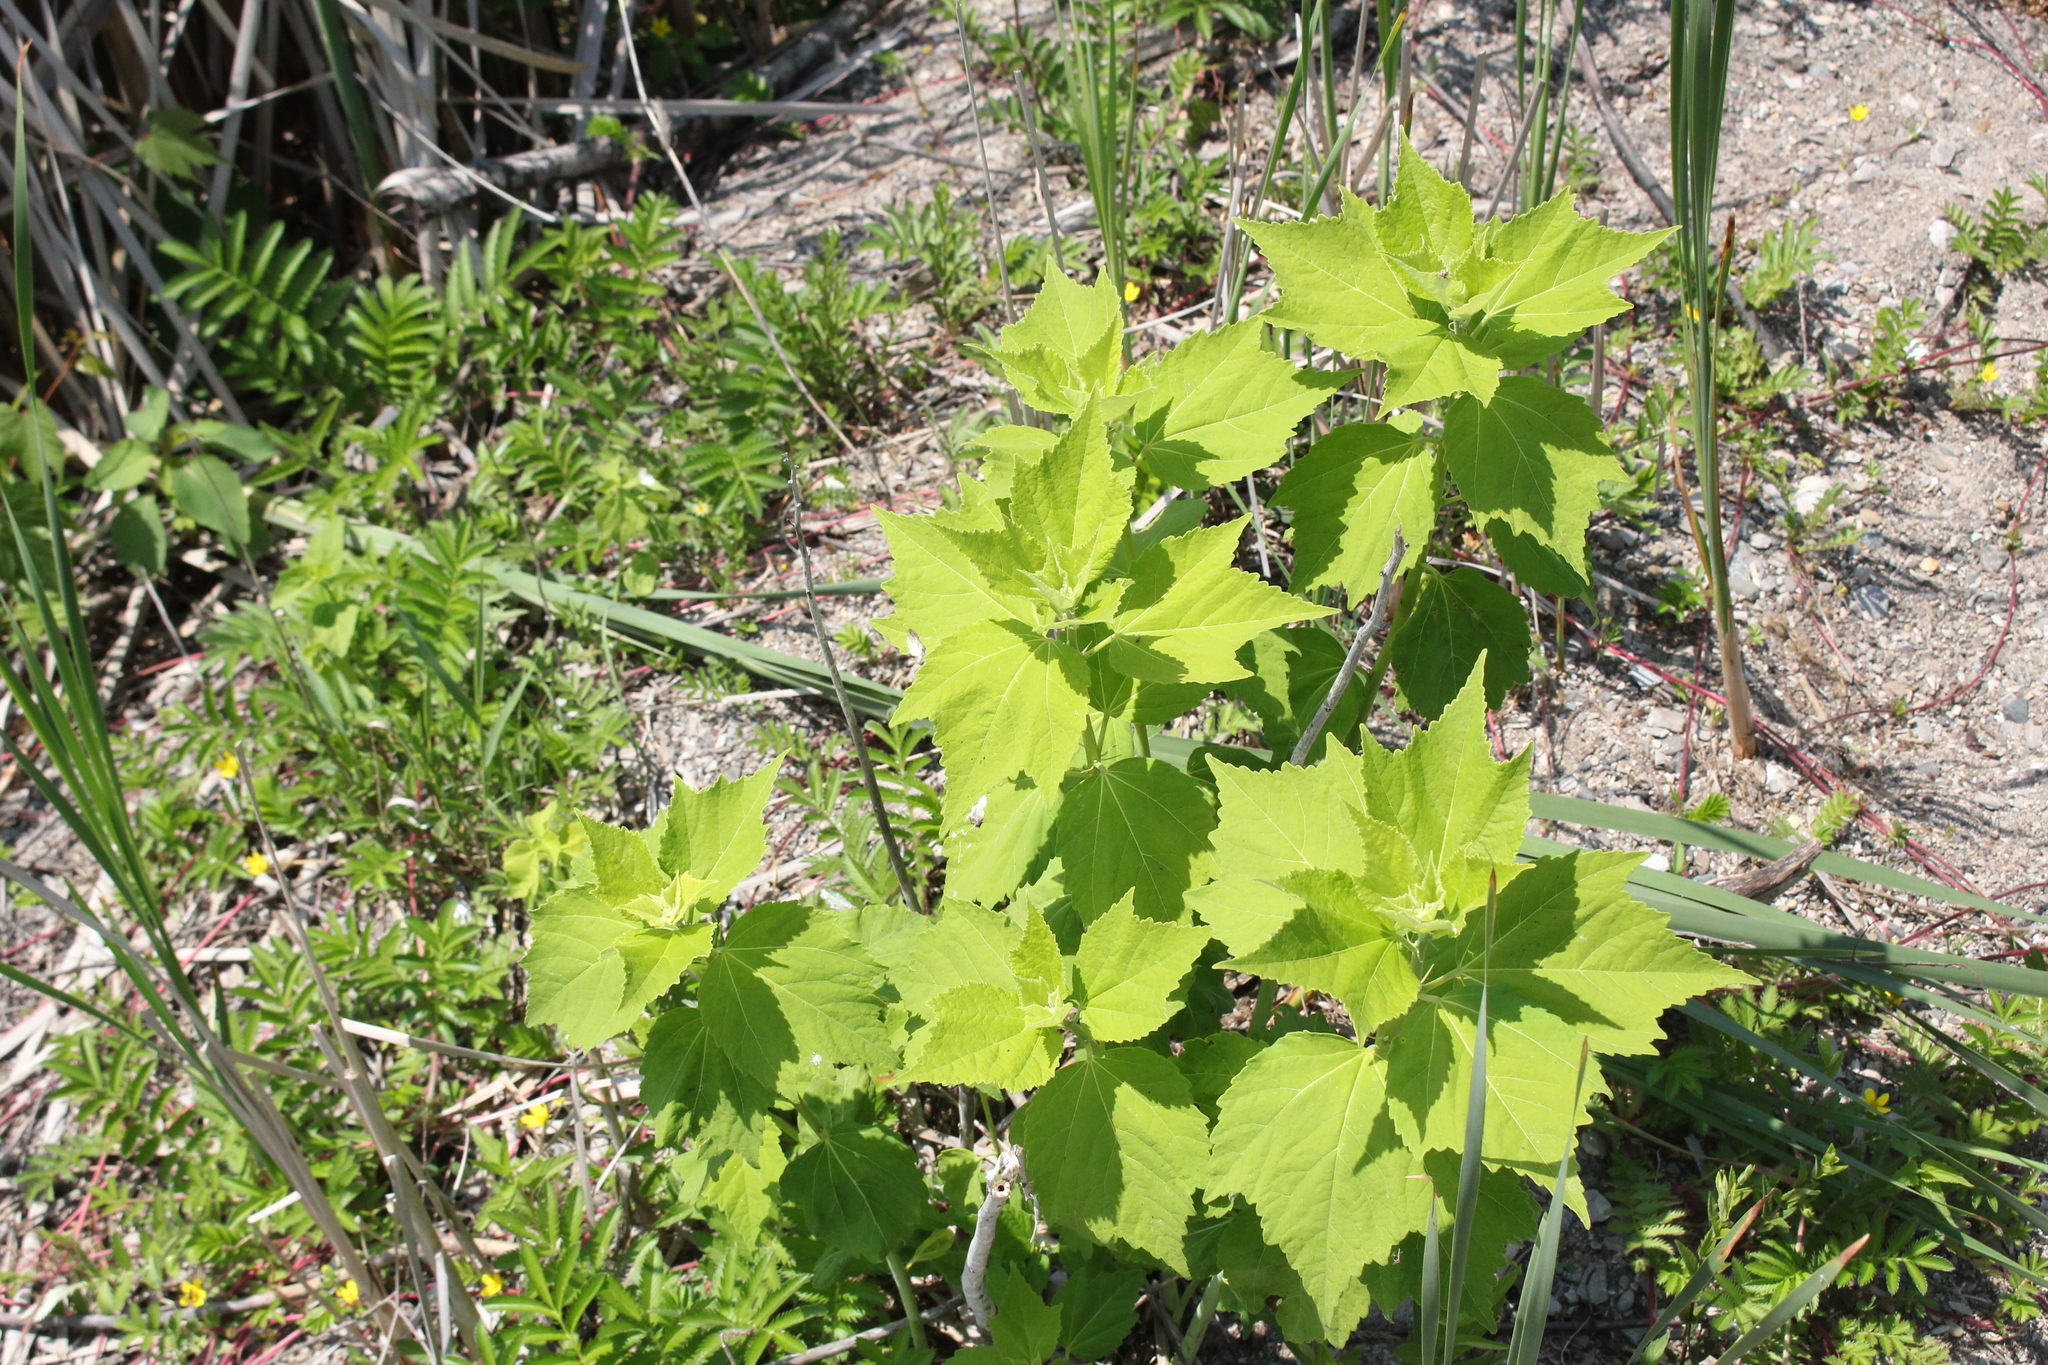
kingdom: Plantae
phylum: Tracheophyta
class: Magnoliopsida
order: Malvales
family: Malvaceae
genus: Hibiscus
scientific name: Hibiscus moscheutos
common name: Common rose-mallow
